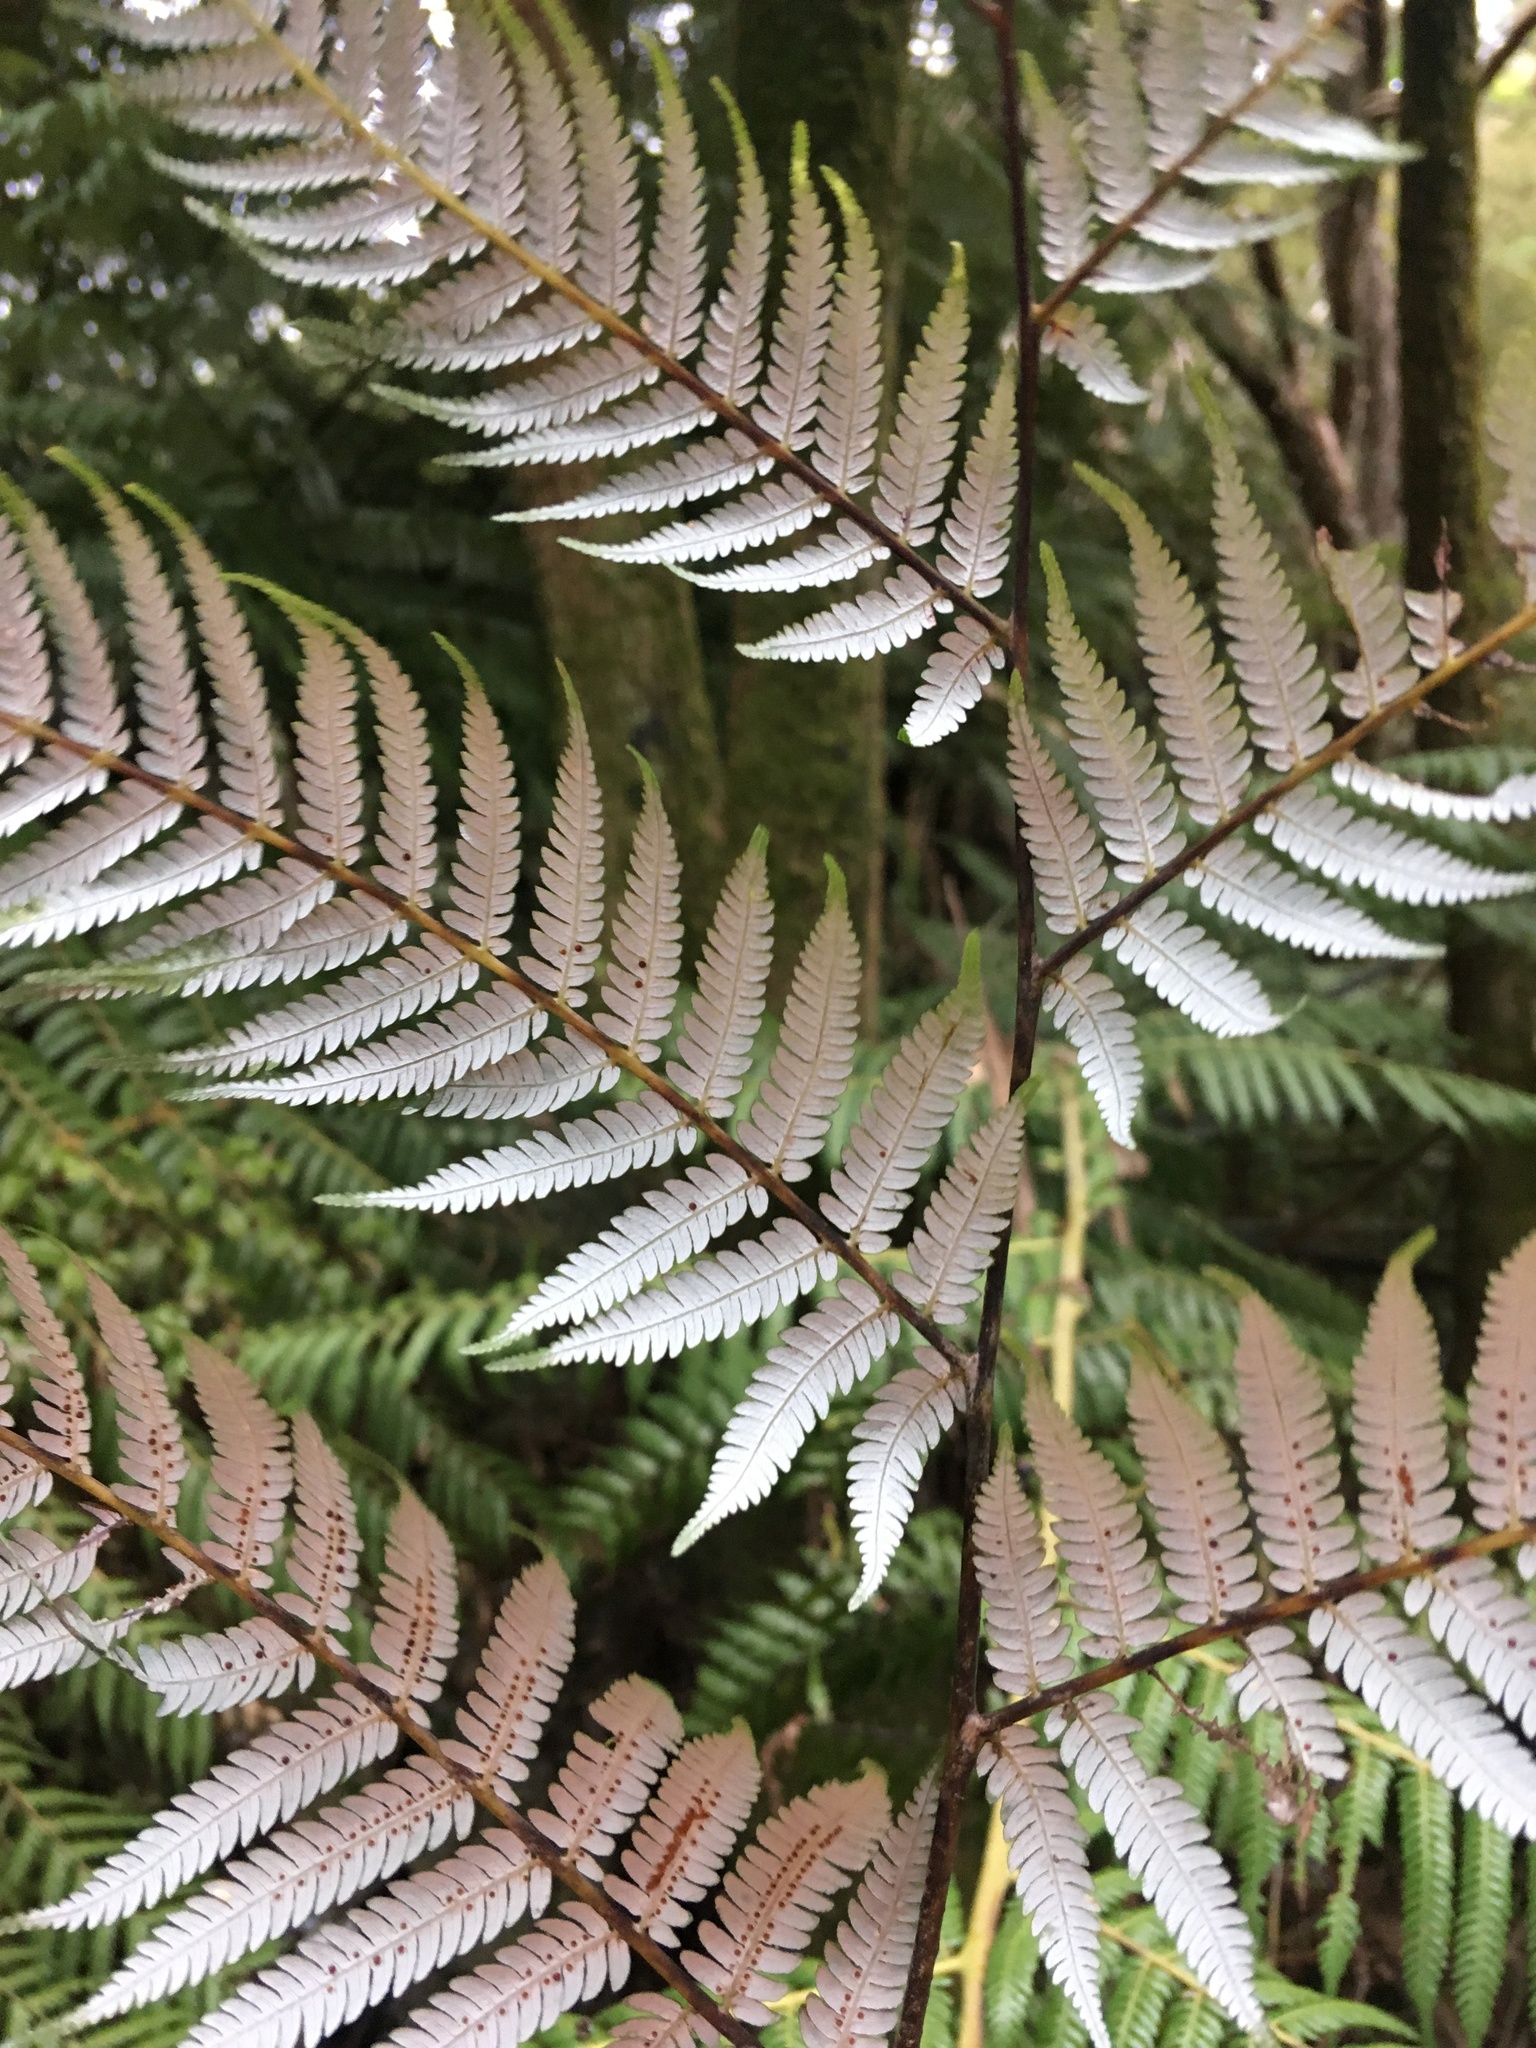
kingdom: Plantae
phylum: Tracheophyta
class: Polypodiopsida
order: Cyatheales
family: Cyatheaceae
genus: Alsophila
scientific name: Alsophila dealbata
